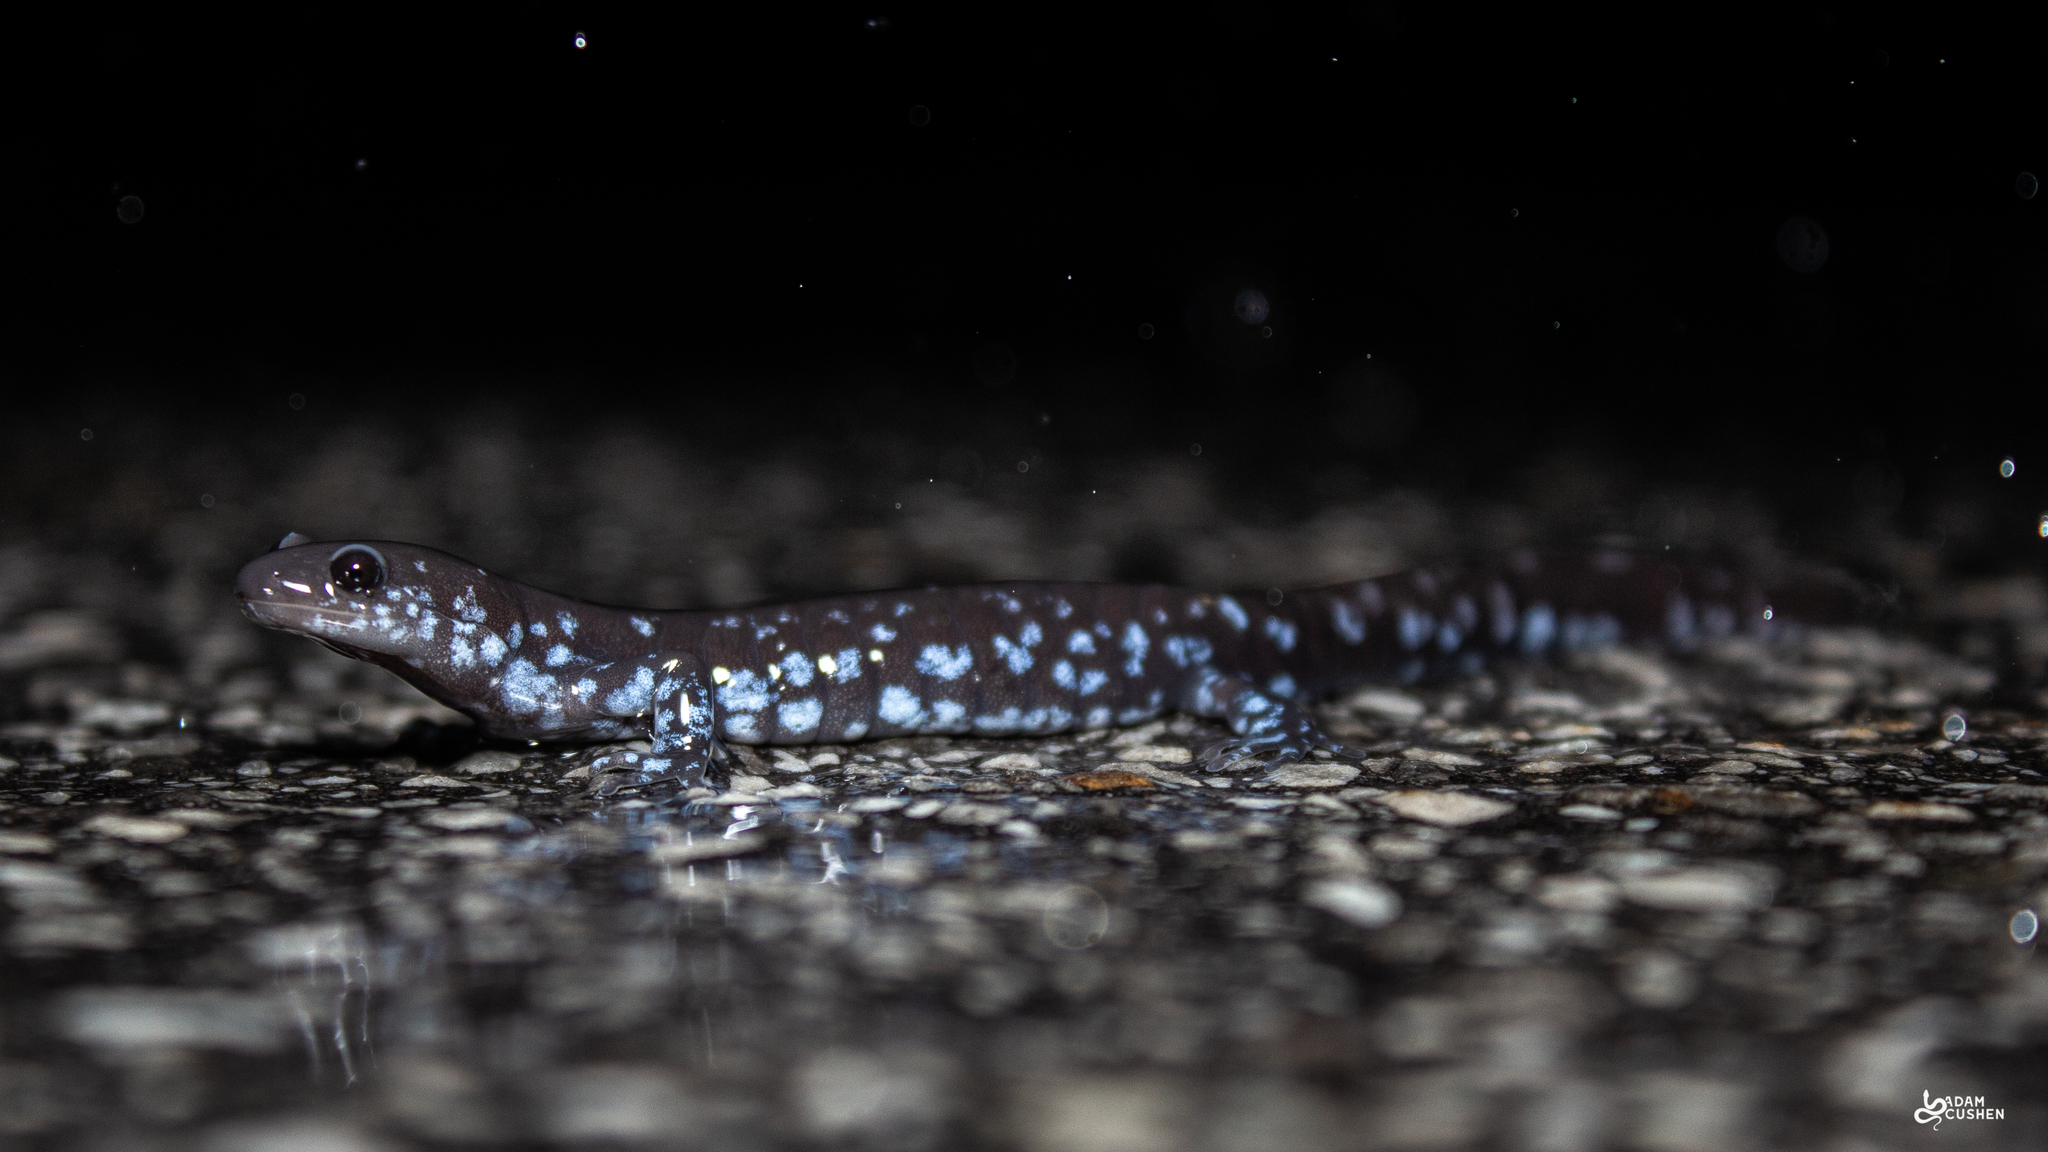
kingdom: Animalia
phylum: Chordata
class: Amphibia
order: Caudata
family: Ambystomatidae
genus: Ambystoma
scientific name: Ambystoma laterale
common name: Blue-spotted salamander
